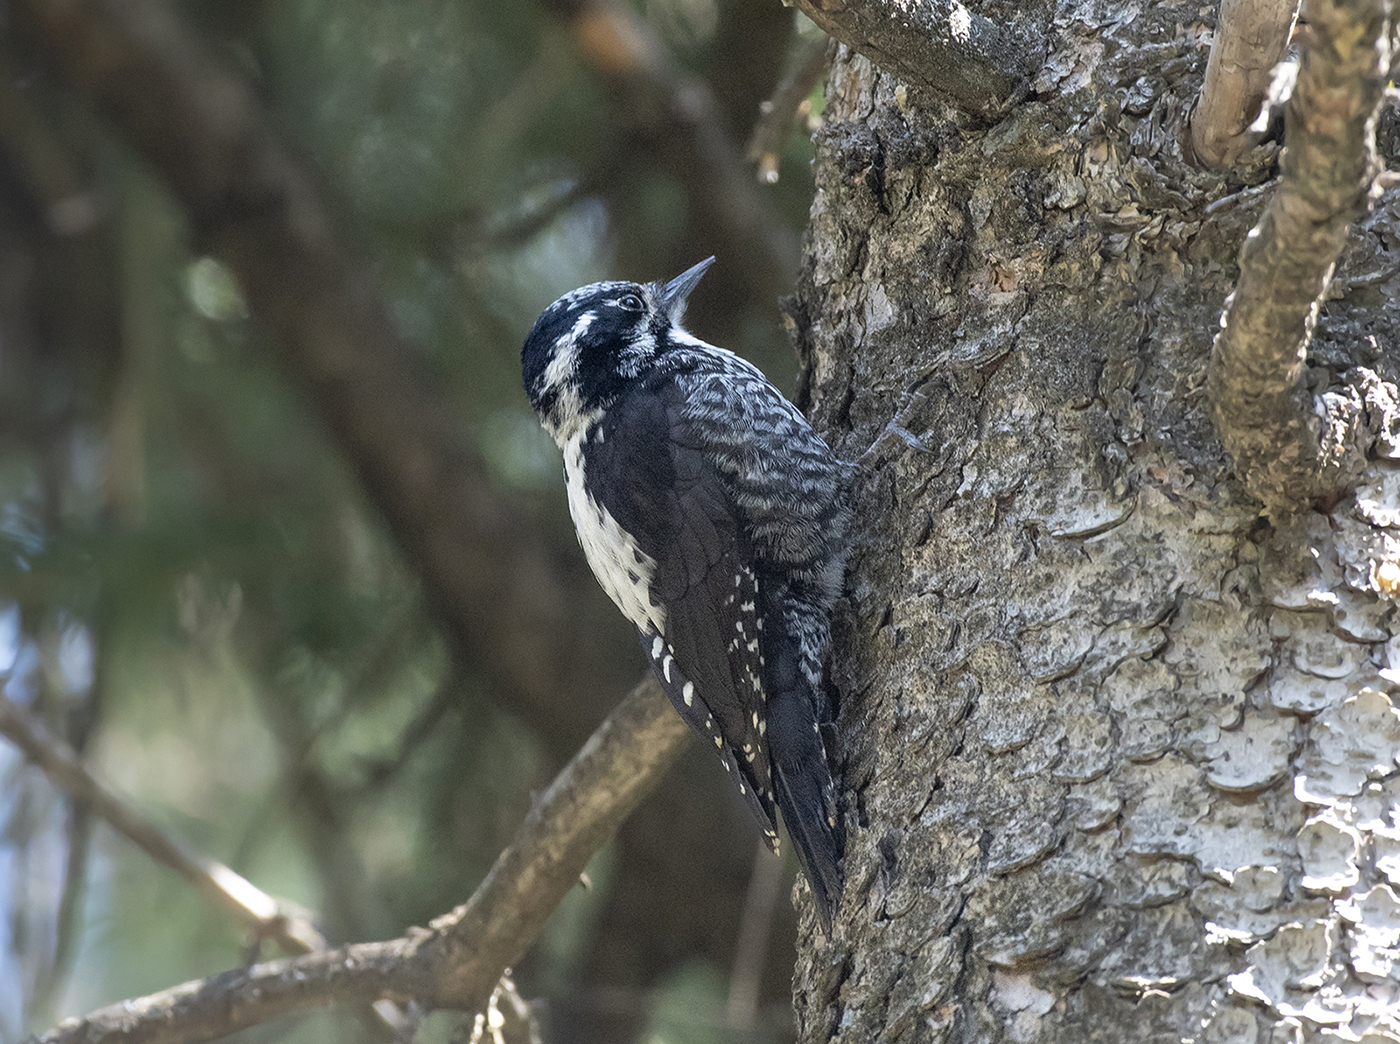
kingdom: Animalia
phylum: Chordata
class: Aves
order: Piciformes
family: Picidae
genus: Picoides
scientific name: Picoides tridactylus
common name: Eurasian three-toed woodpecker
